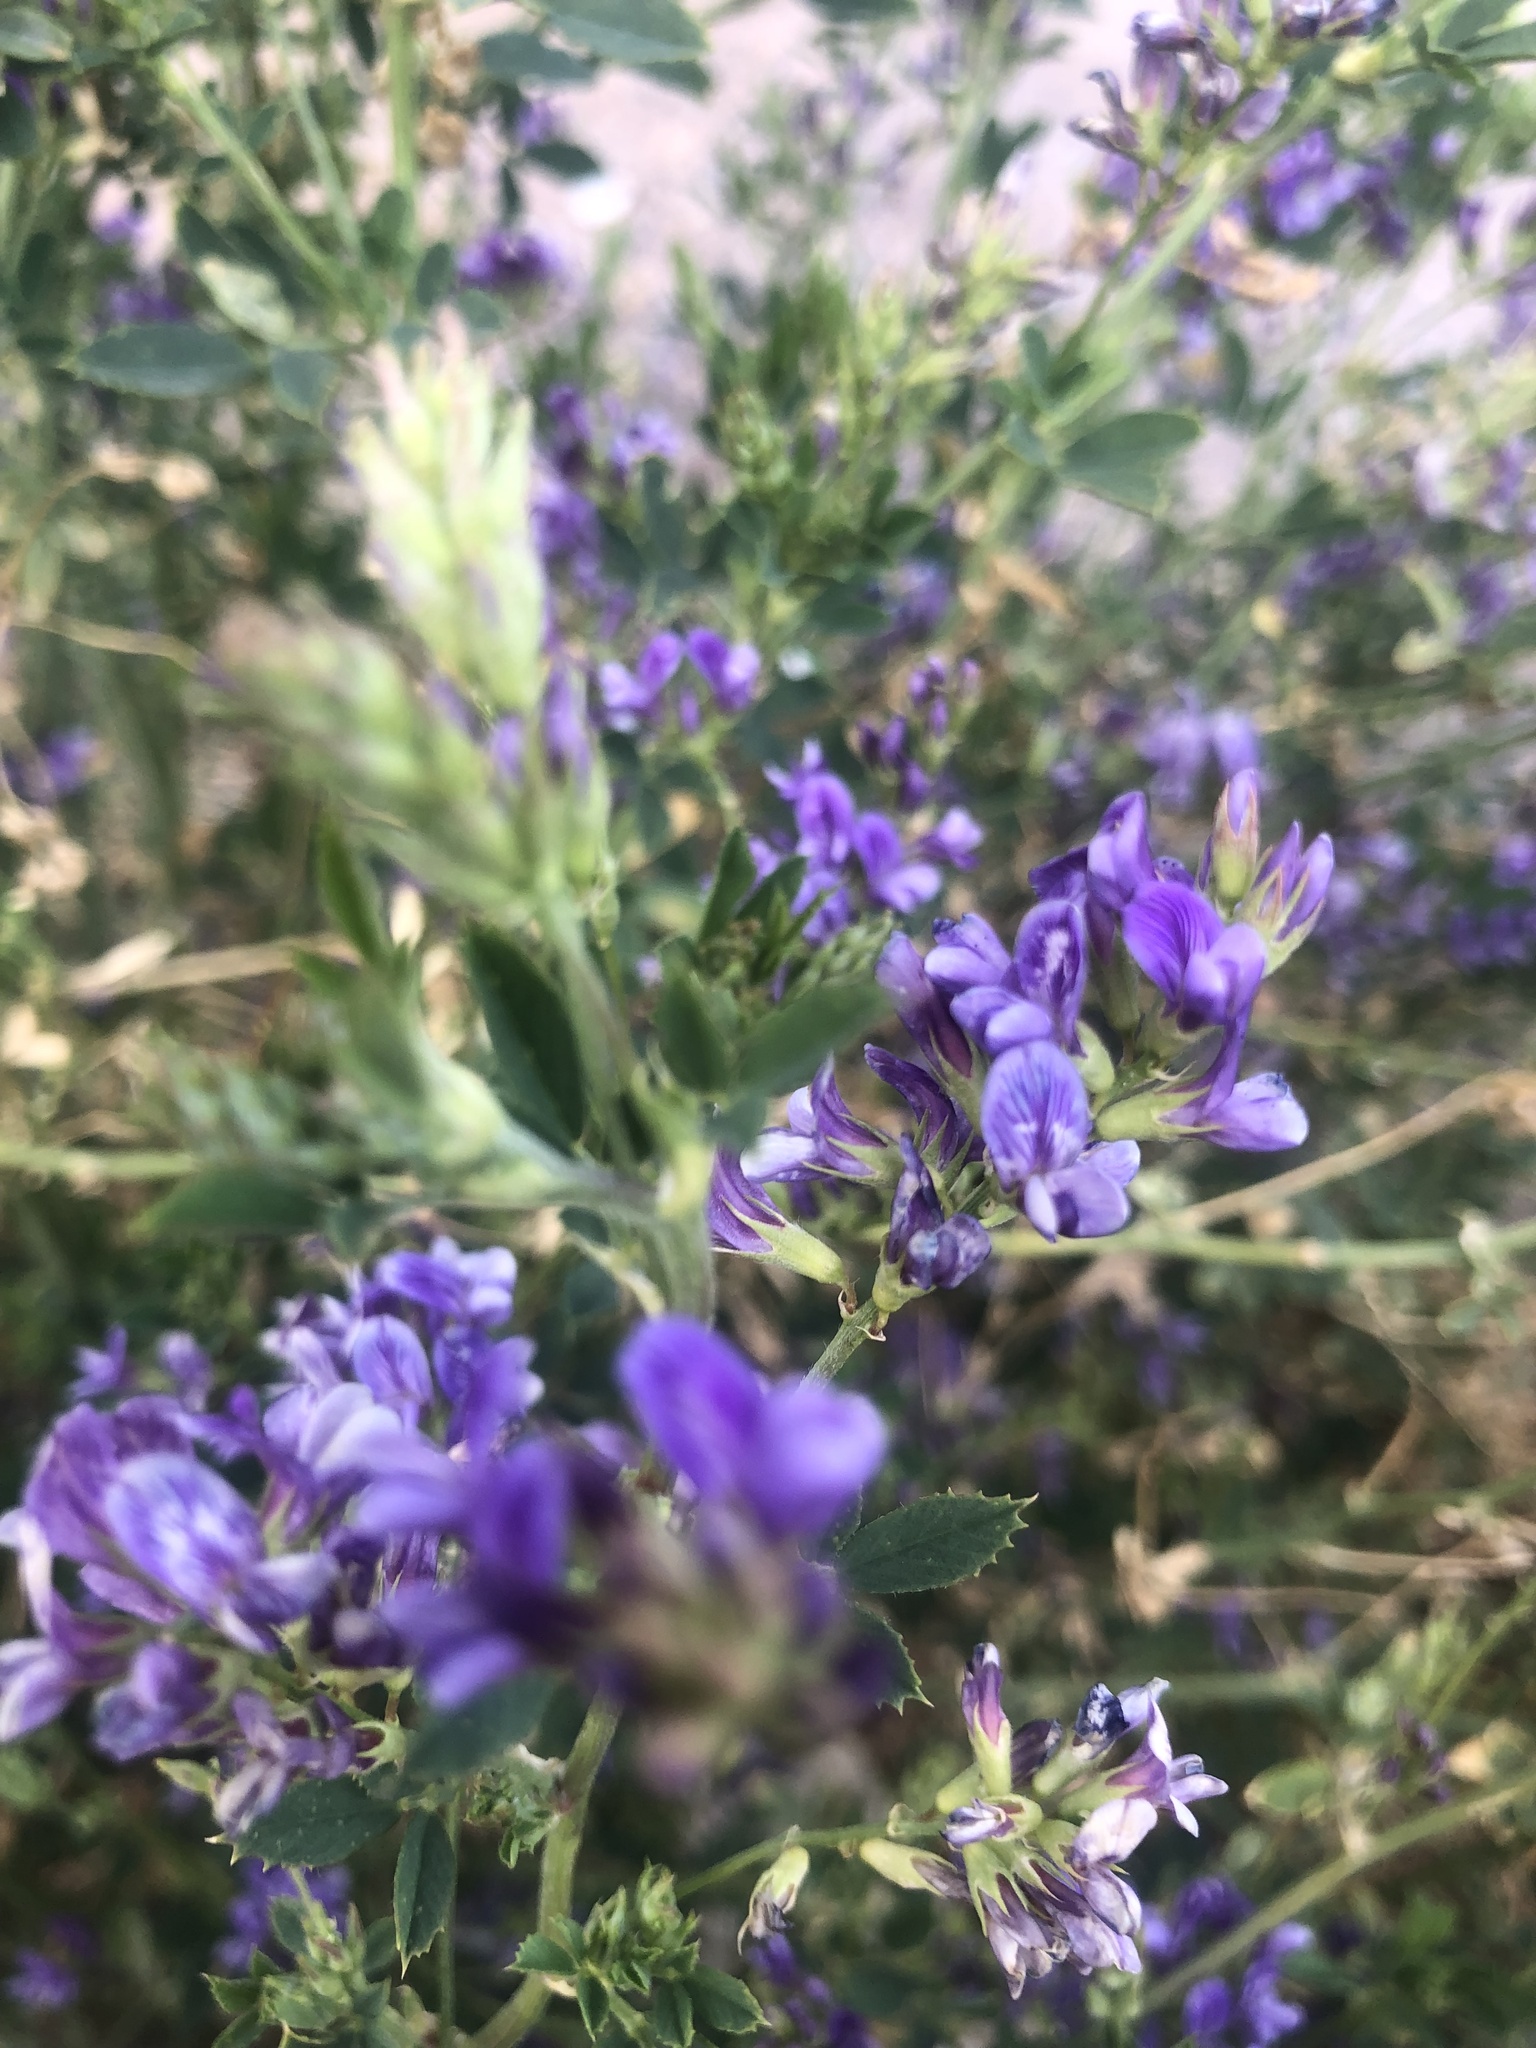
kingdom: Plantae
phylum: Tracheophyta
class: Magnoliopsida
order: Fabales
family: Fabaceae
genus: Medicago
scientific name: Medicago sativa
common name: Alfalfa
